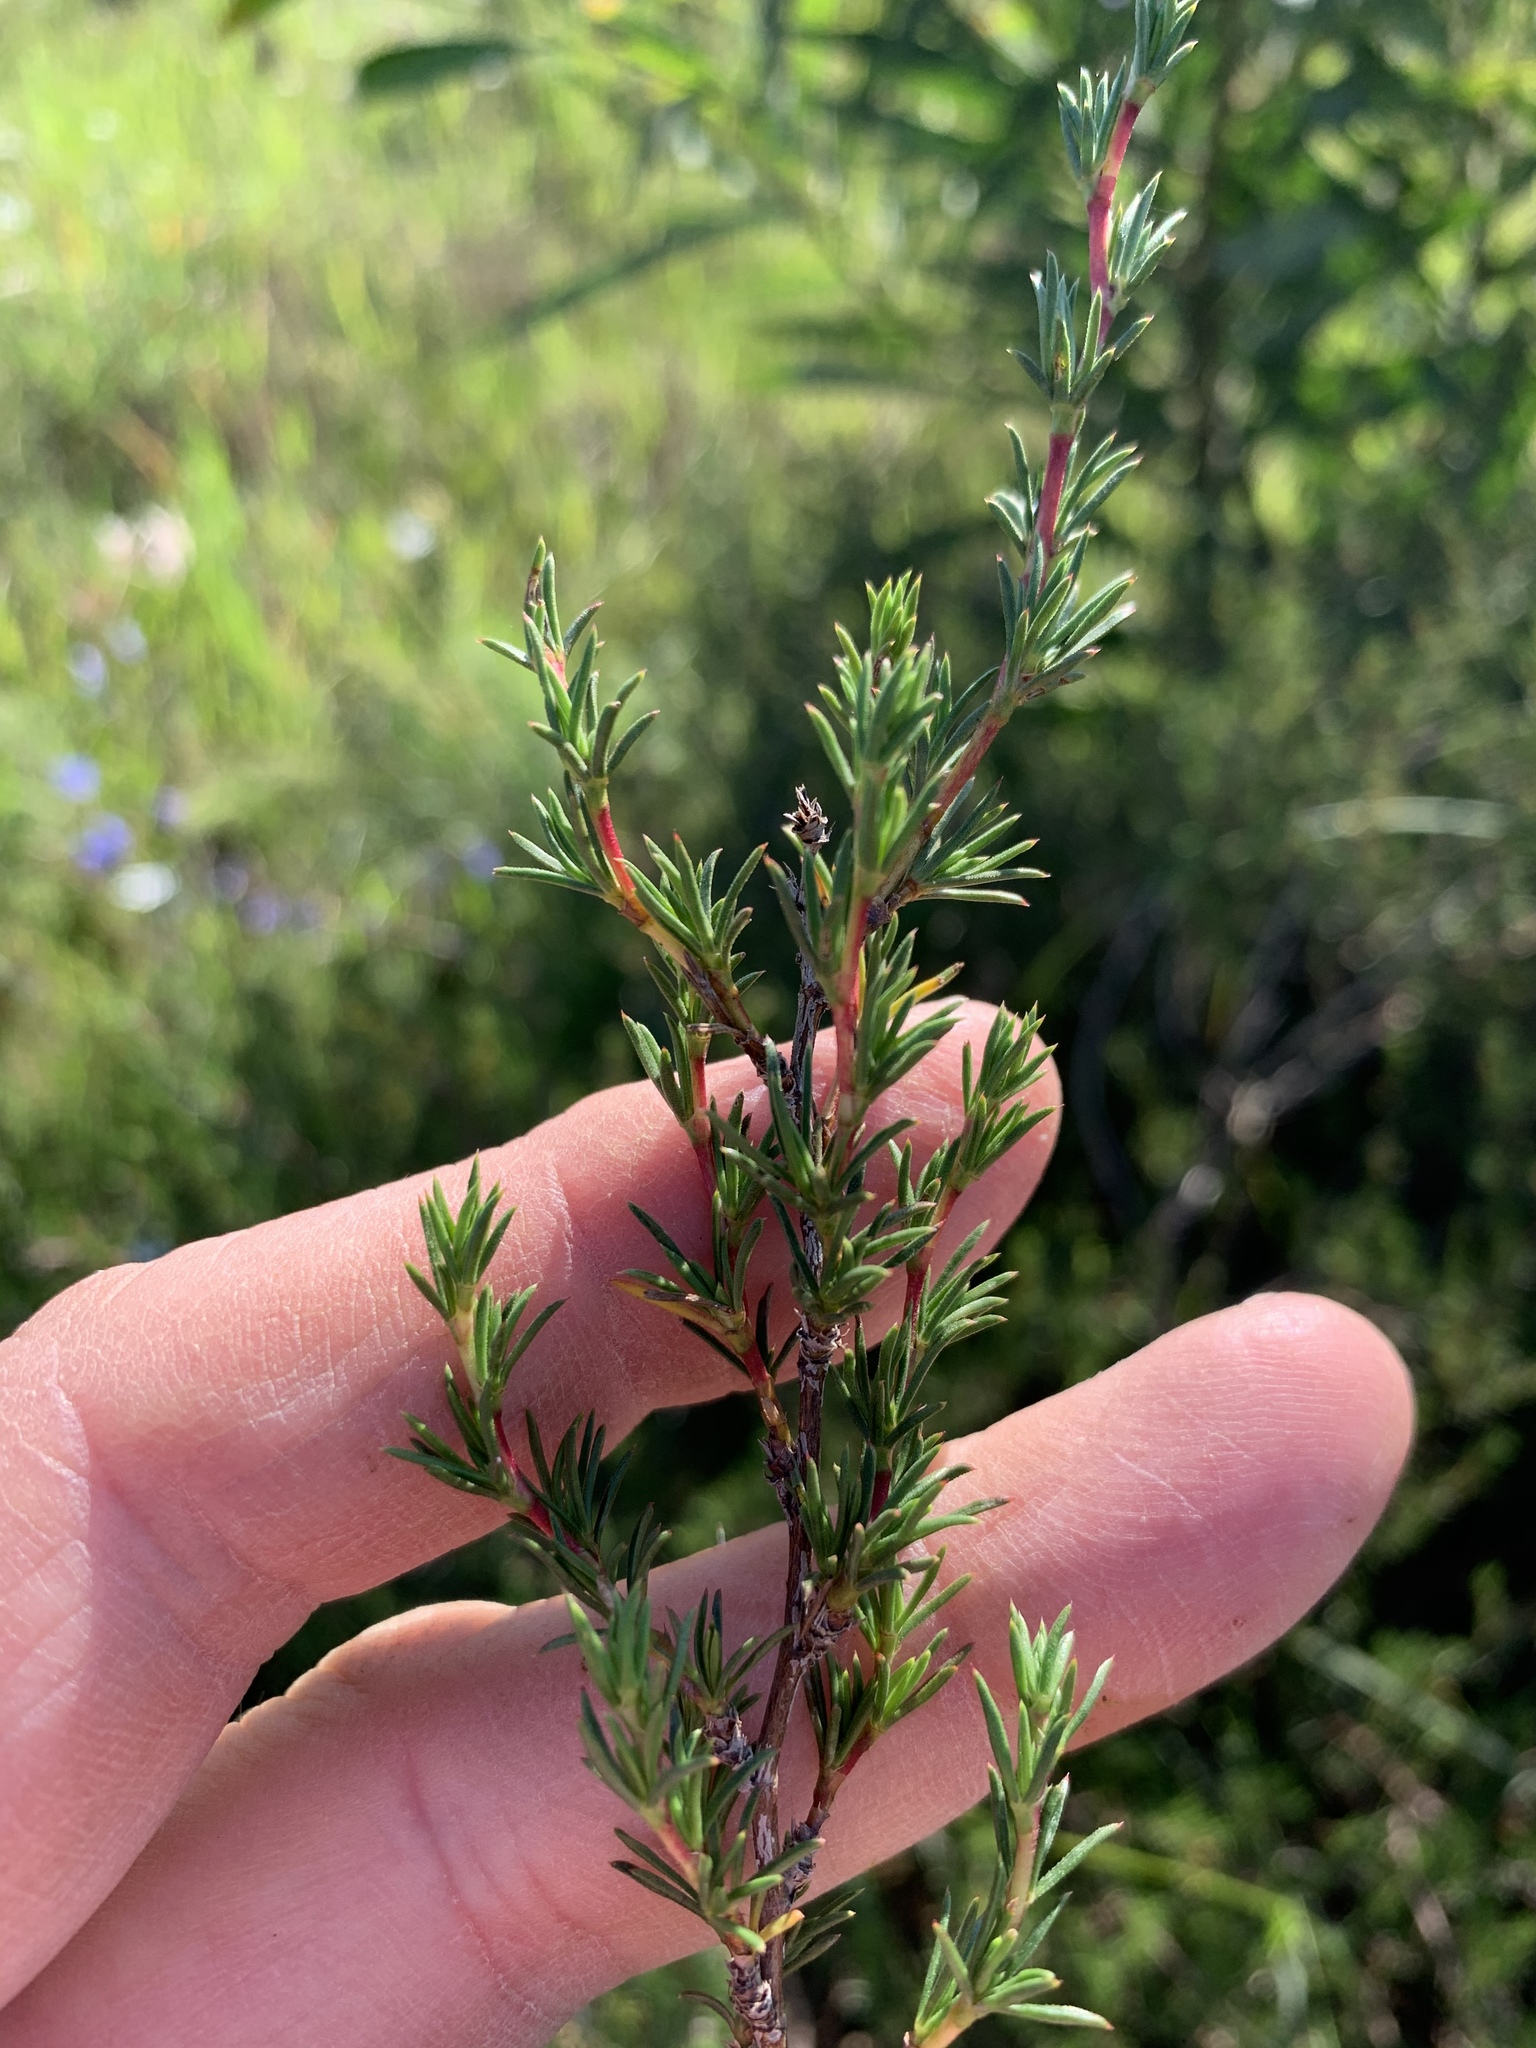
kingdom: Plantae
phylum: Tracheophyta
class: Magnoliopsida
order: Rosales
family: Rosaceae
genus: Cliffortia
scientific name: Cliffortia juniperina
